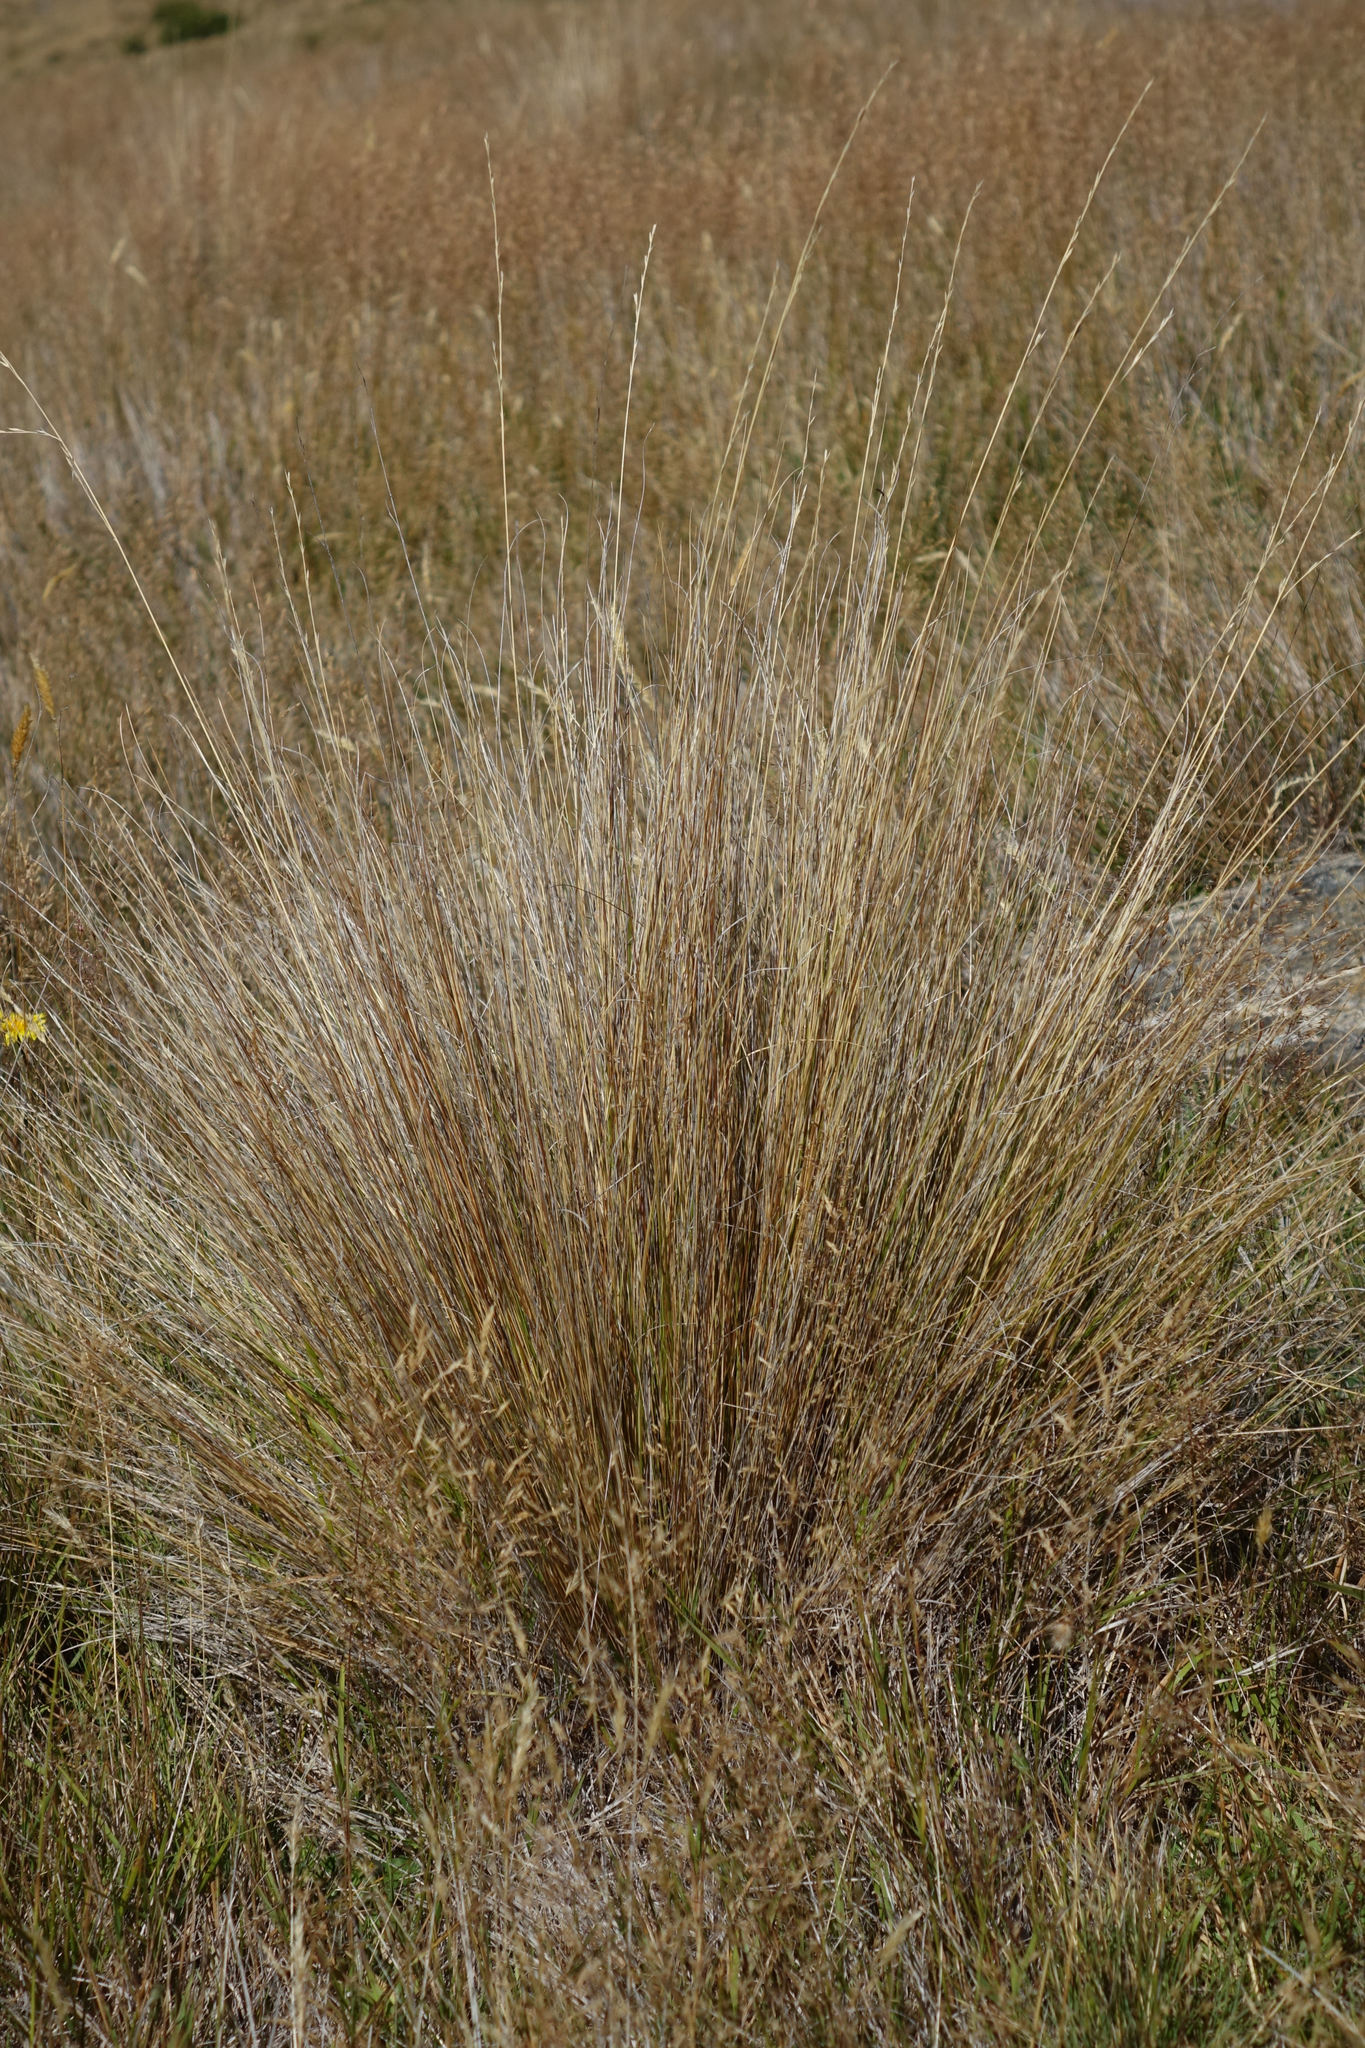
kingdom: Plantae
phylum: Tracheophyta
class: Liliopsida
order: Poales
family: Poaceae
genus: Festuca
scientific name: Festuca novae-zelandiae
